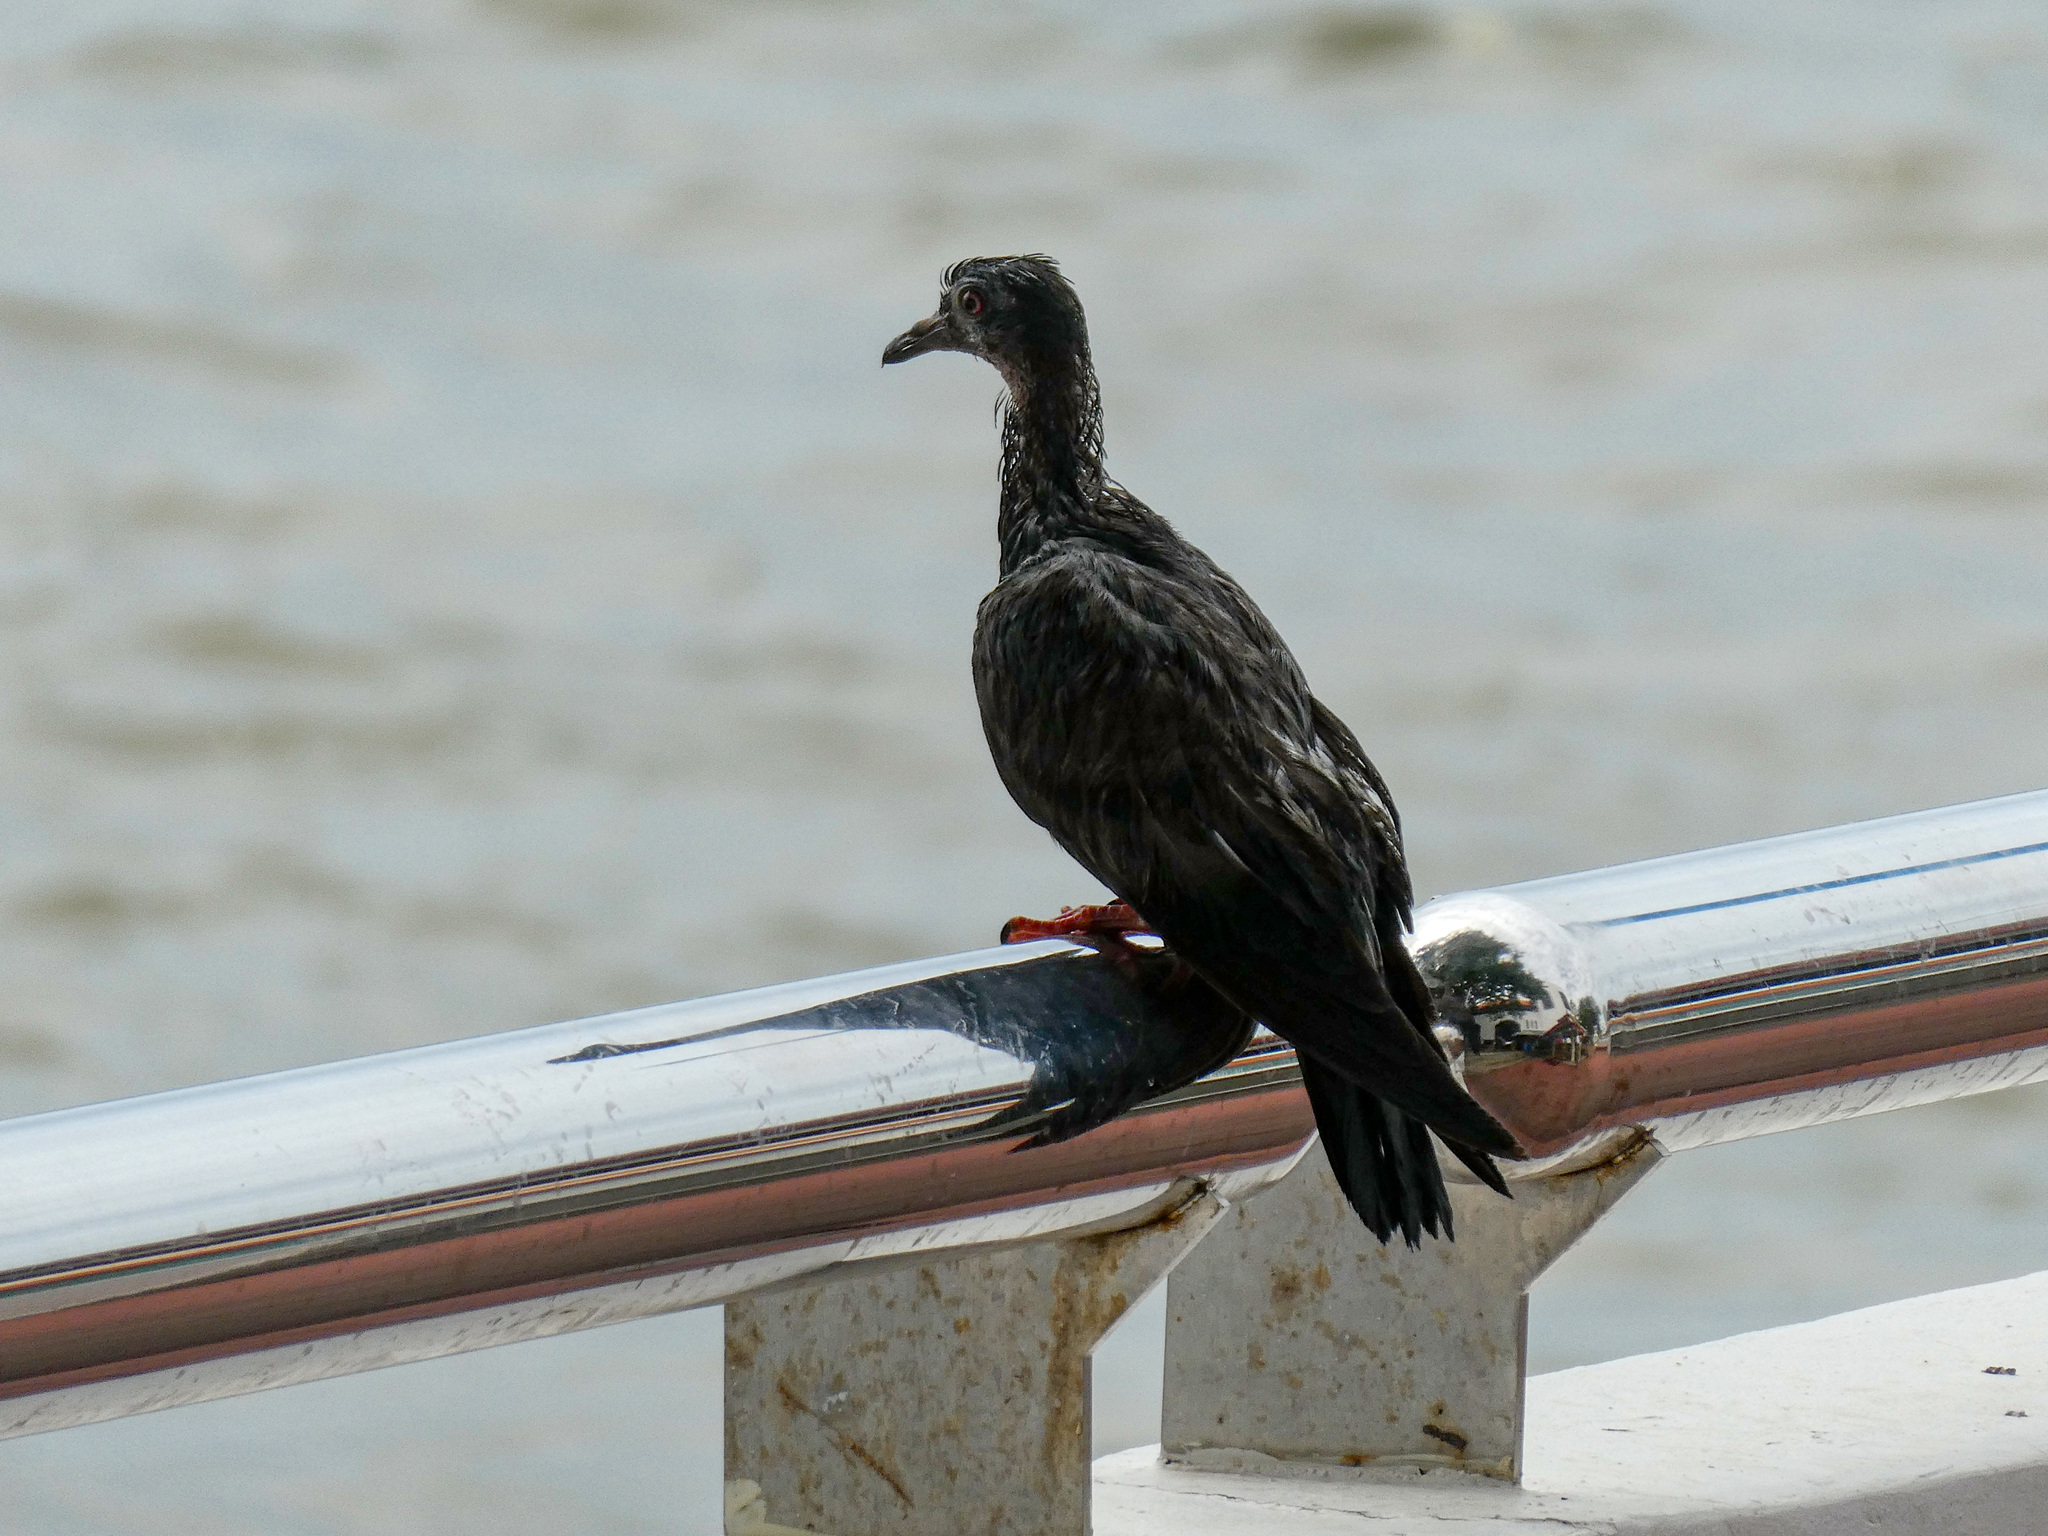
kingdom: Animalia
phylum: Chordata
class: Aves
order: Columbiformes
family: Columbidae
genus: Columba
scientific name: Columba livia
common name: Rock pigeon
